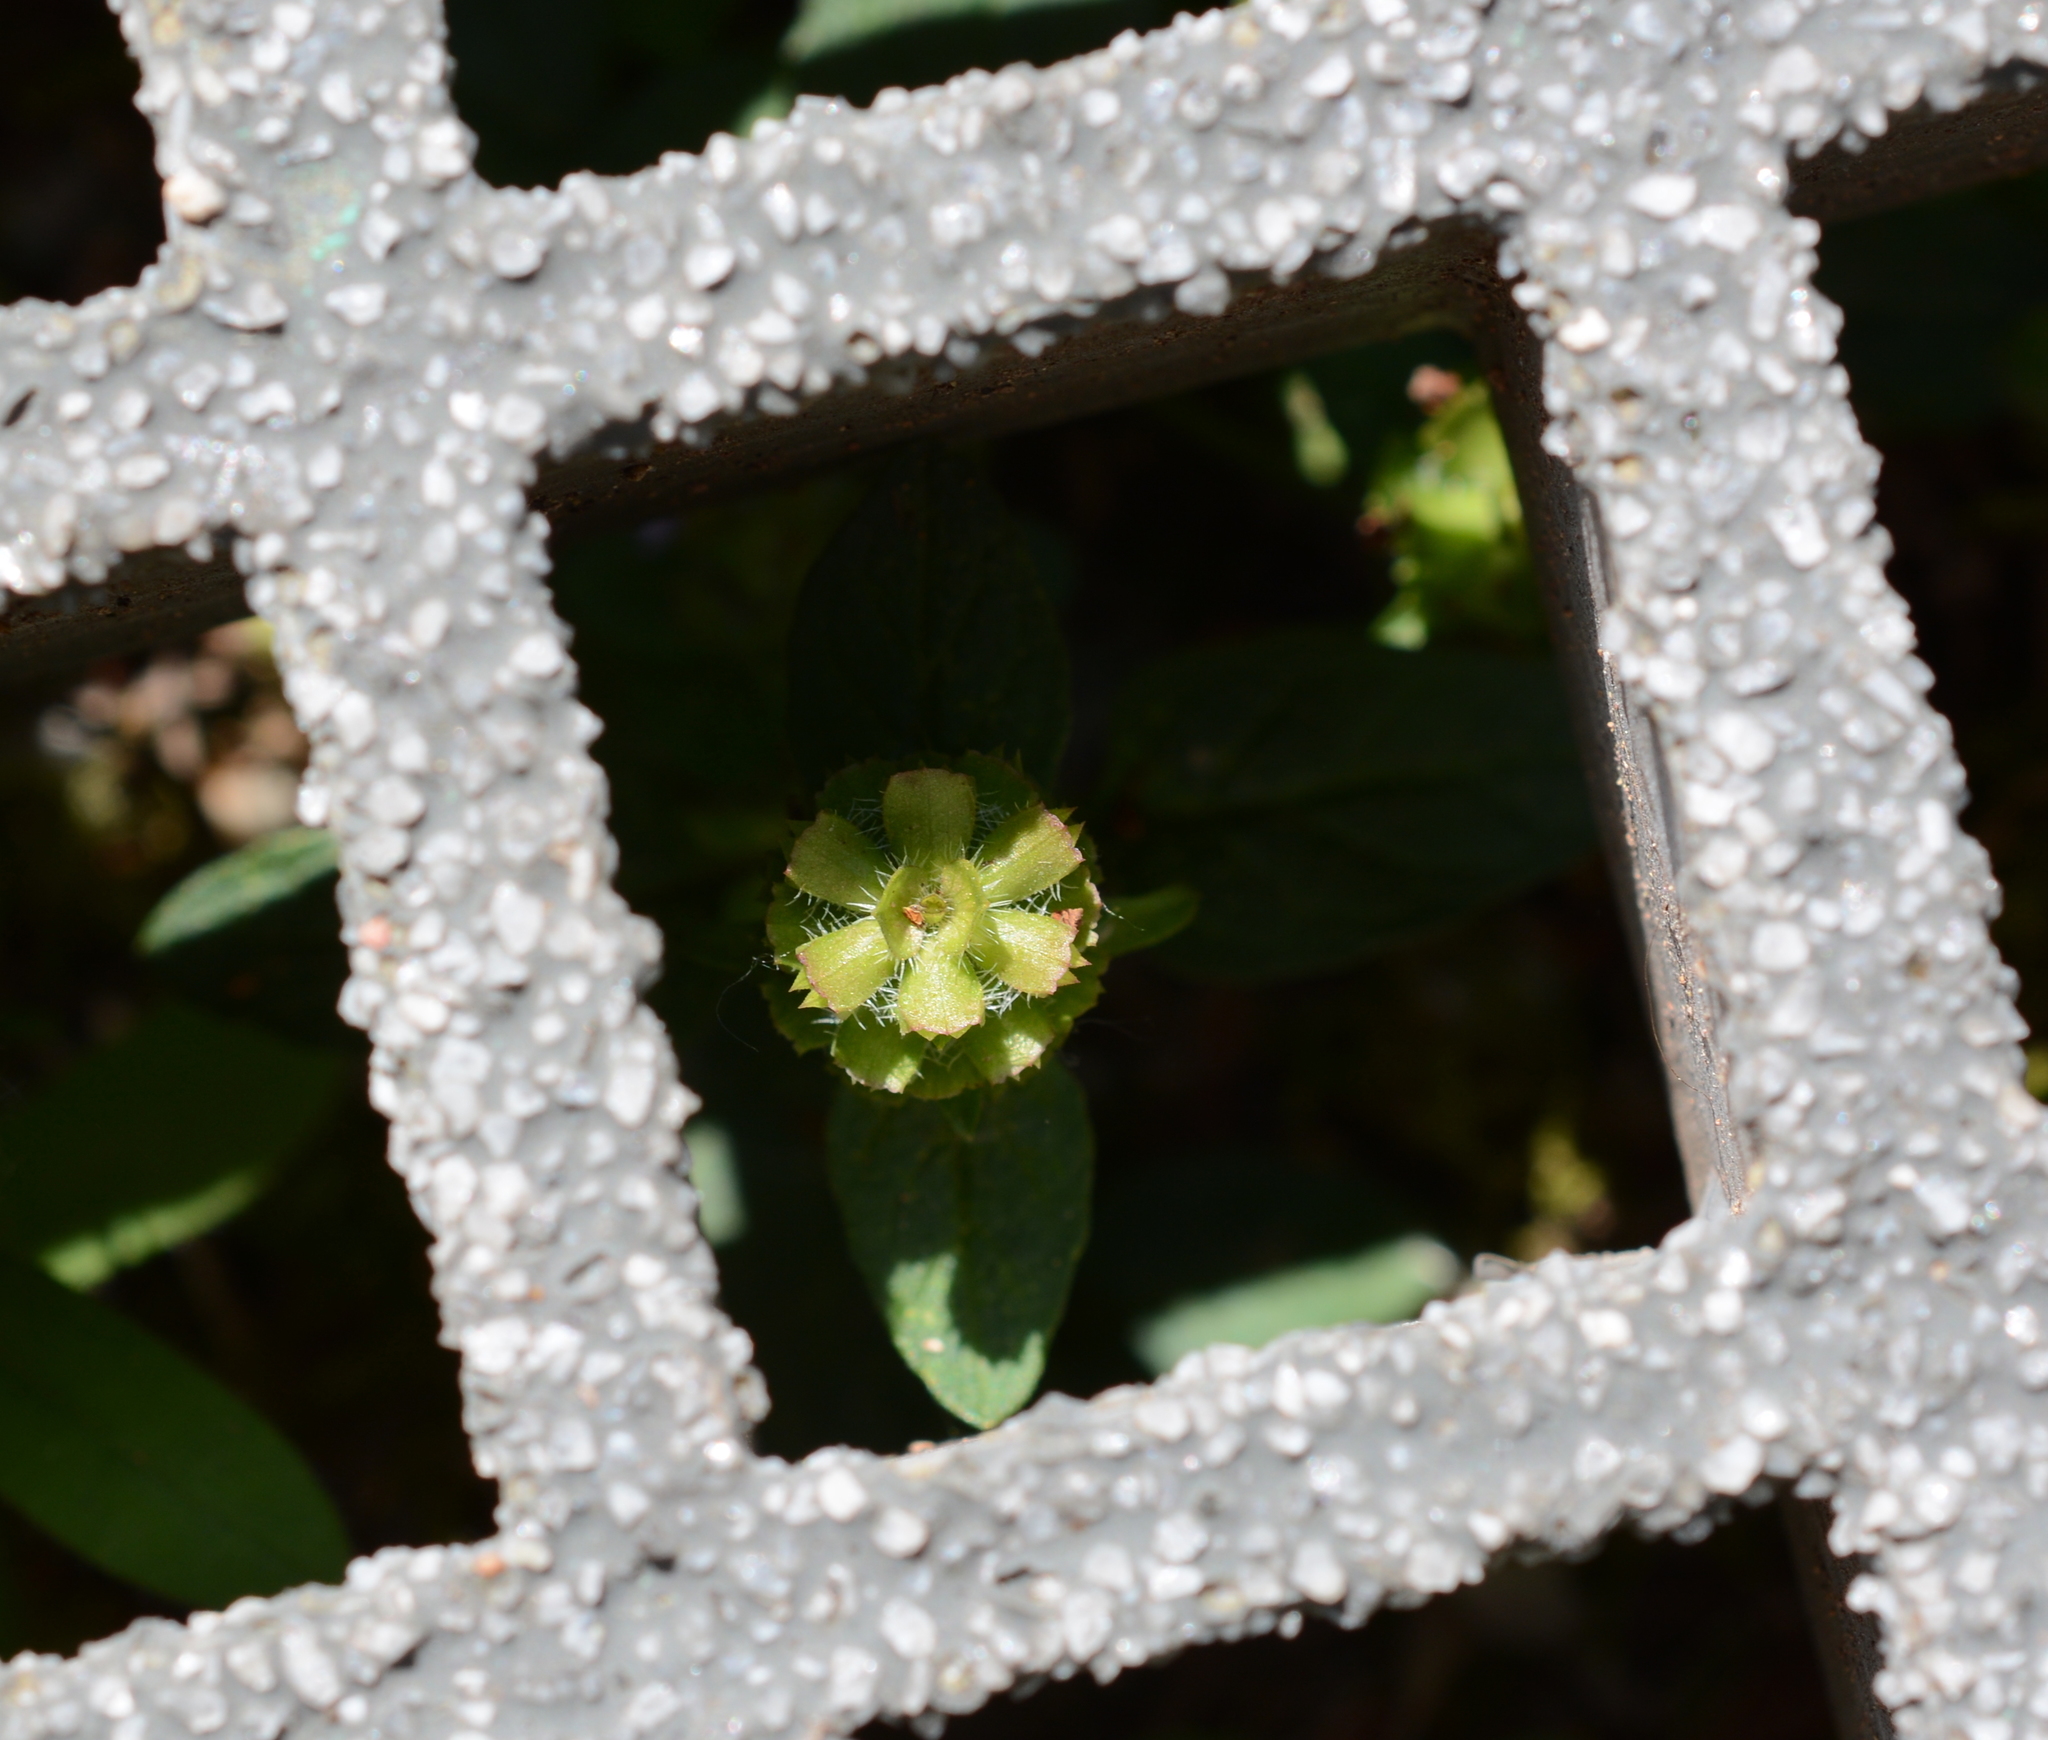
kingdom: Plantae
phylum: Tracheophyta
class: Magnoliopsida
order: Lamiales
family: Lamiaceae
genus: Prunella
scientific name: Prunella vulgaris
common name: Heal-all
